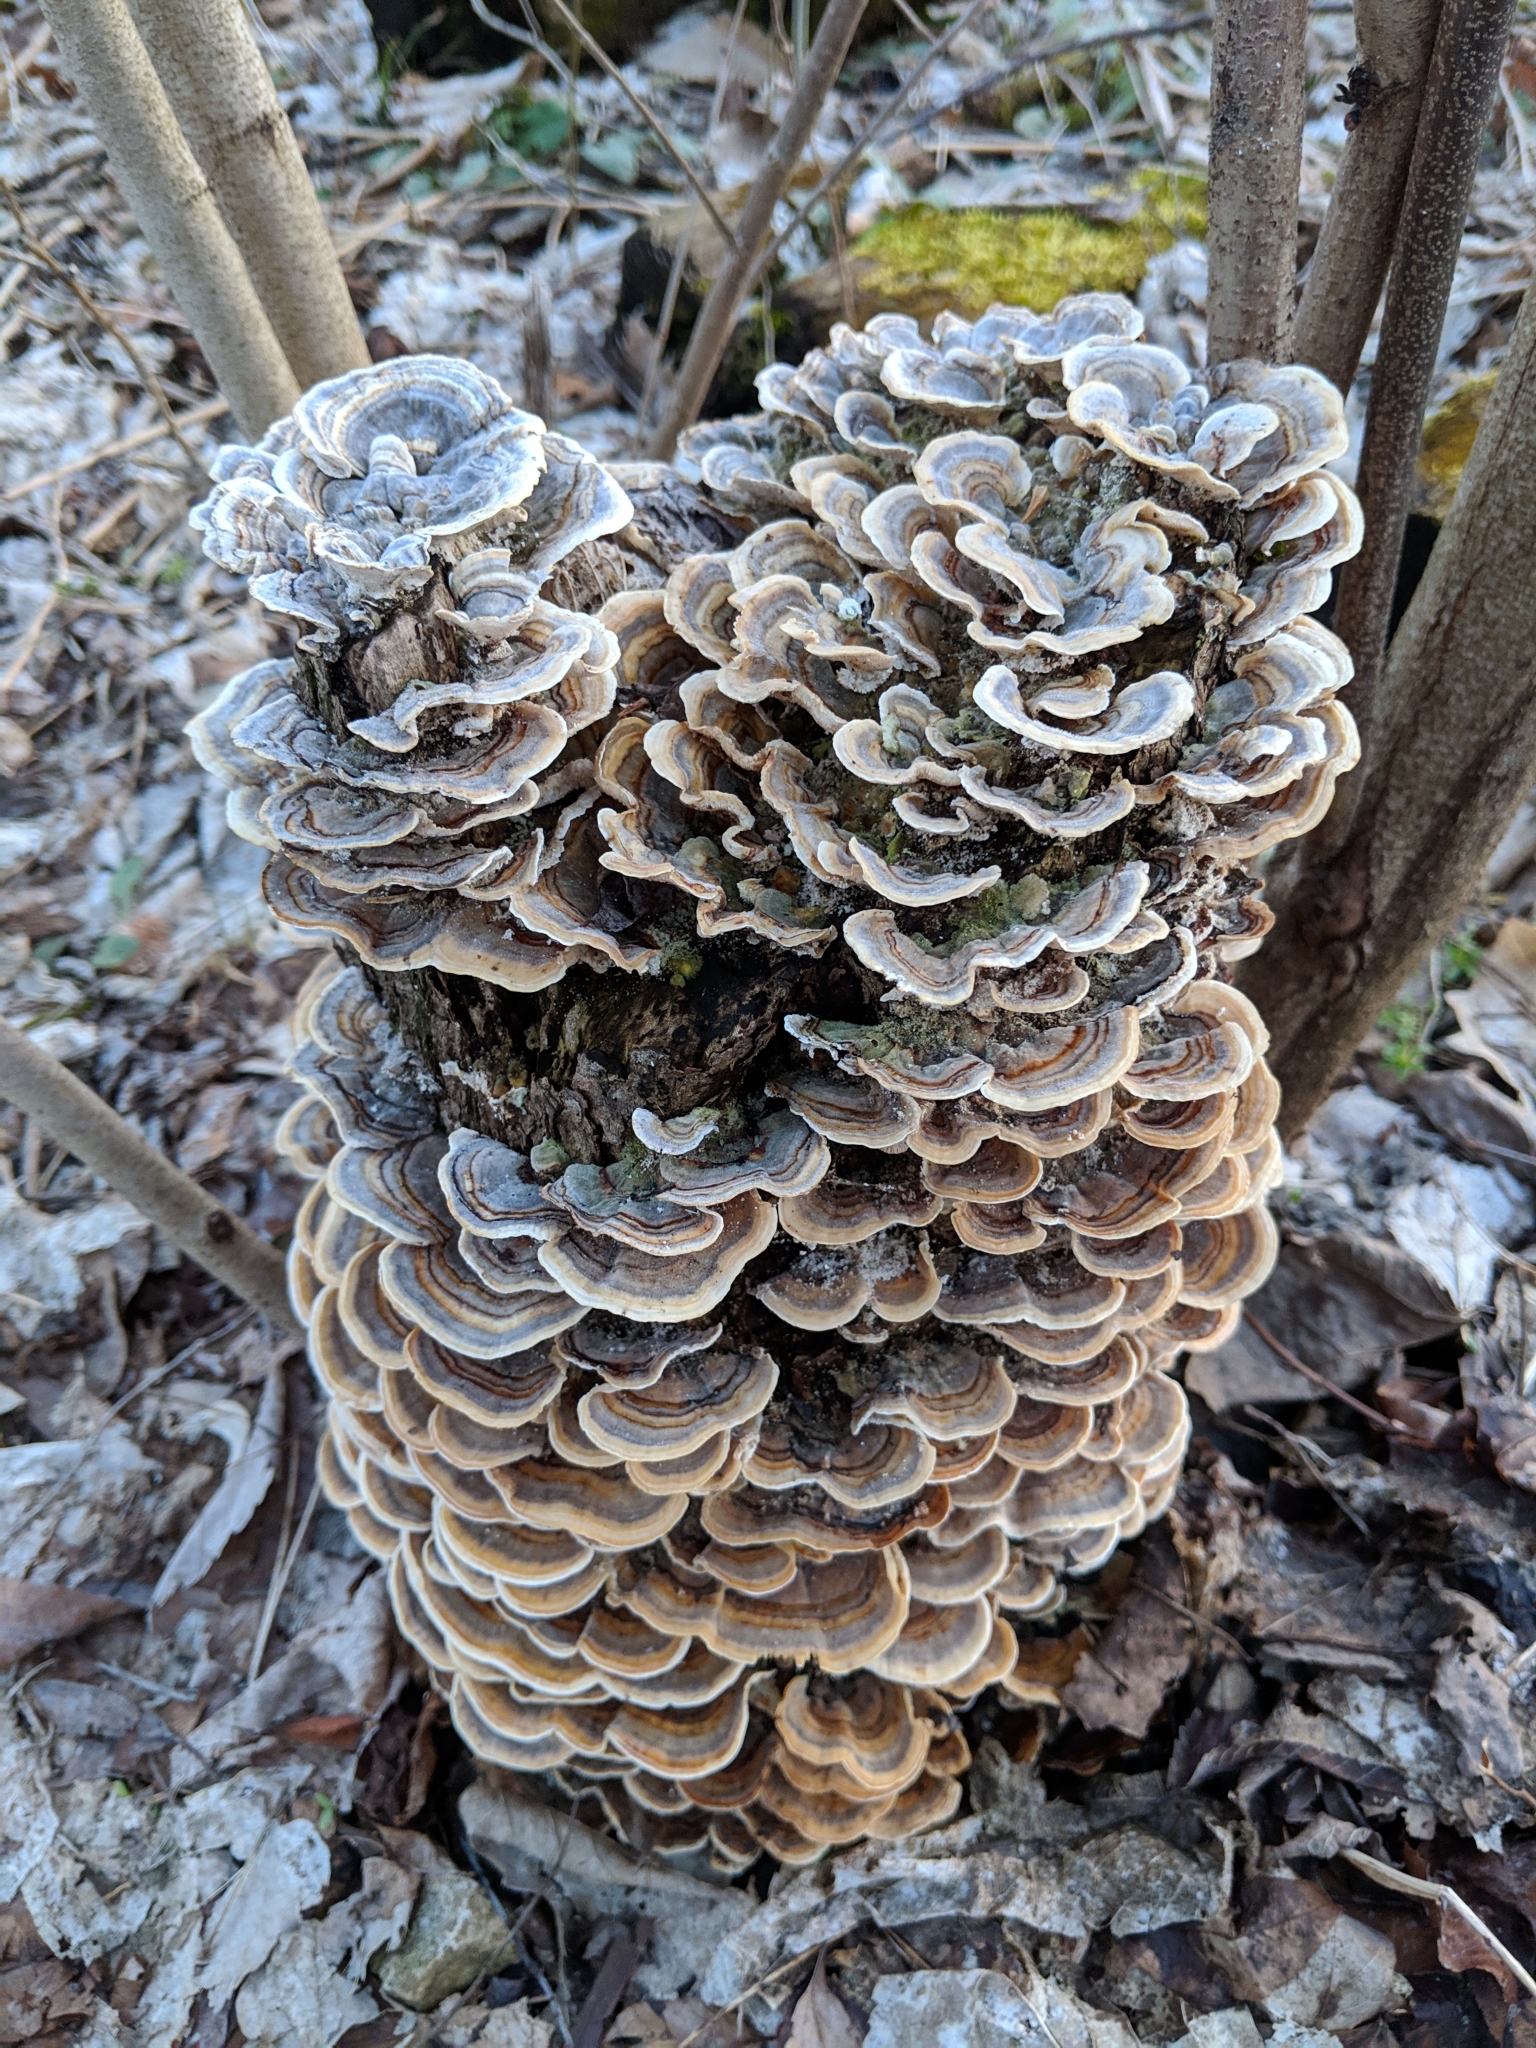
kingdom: Fungi
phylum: Basidiomycota
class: Agaricomycetes
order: Polyporales
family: Polyporaceae
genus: Trametes
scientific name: Trametes versicolor
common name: Turkeytail
